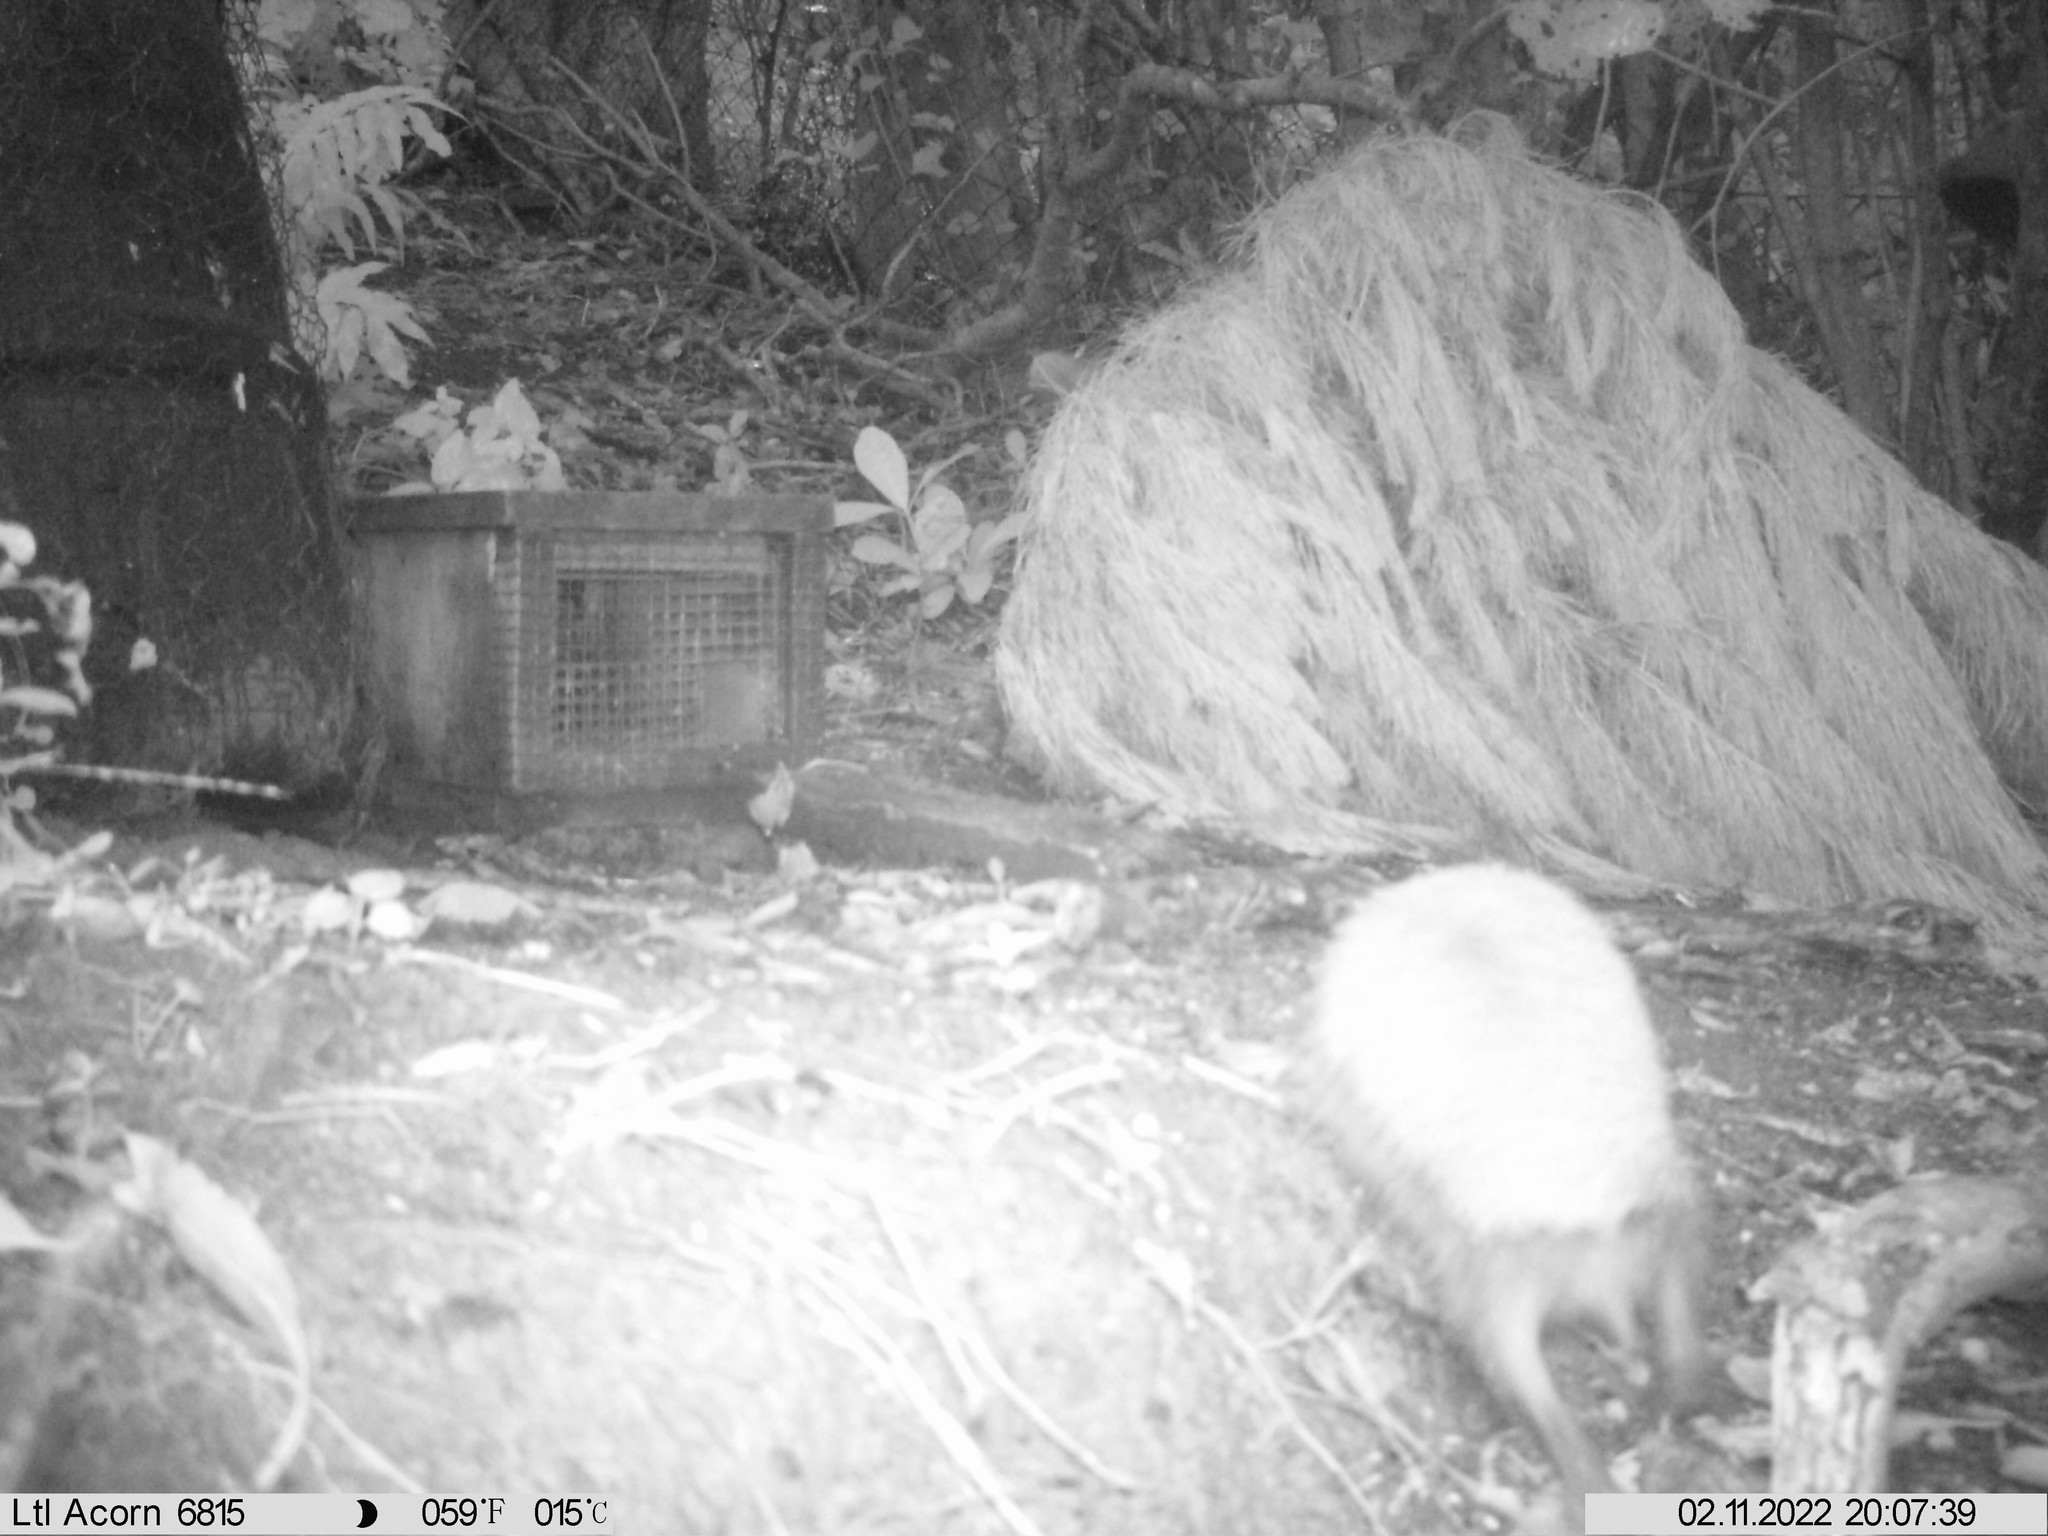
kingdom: Animalia
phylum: Chordata
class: Mammalia
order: Erinaceomorpha
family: Erinaceidae
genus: Erinaceus
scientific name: Erinaceus europaeus
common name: West european hedgehog
